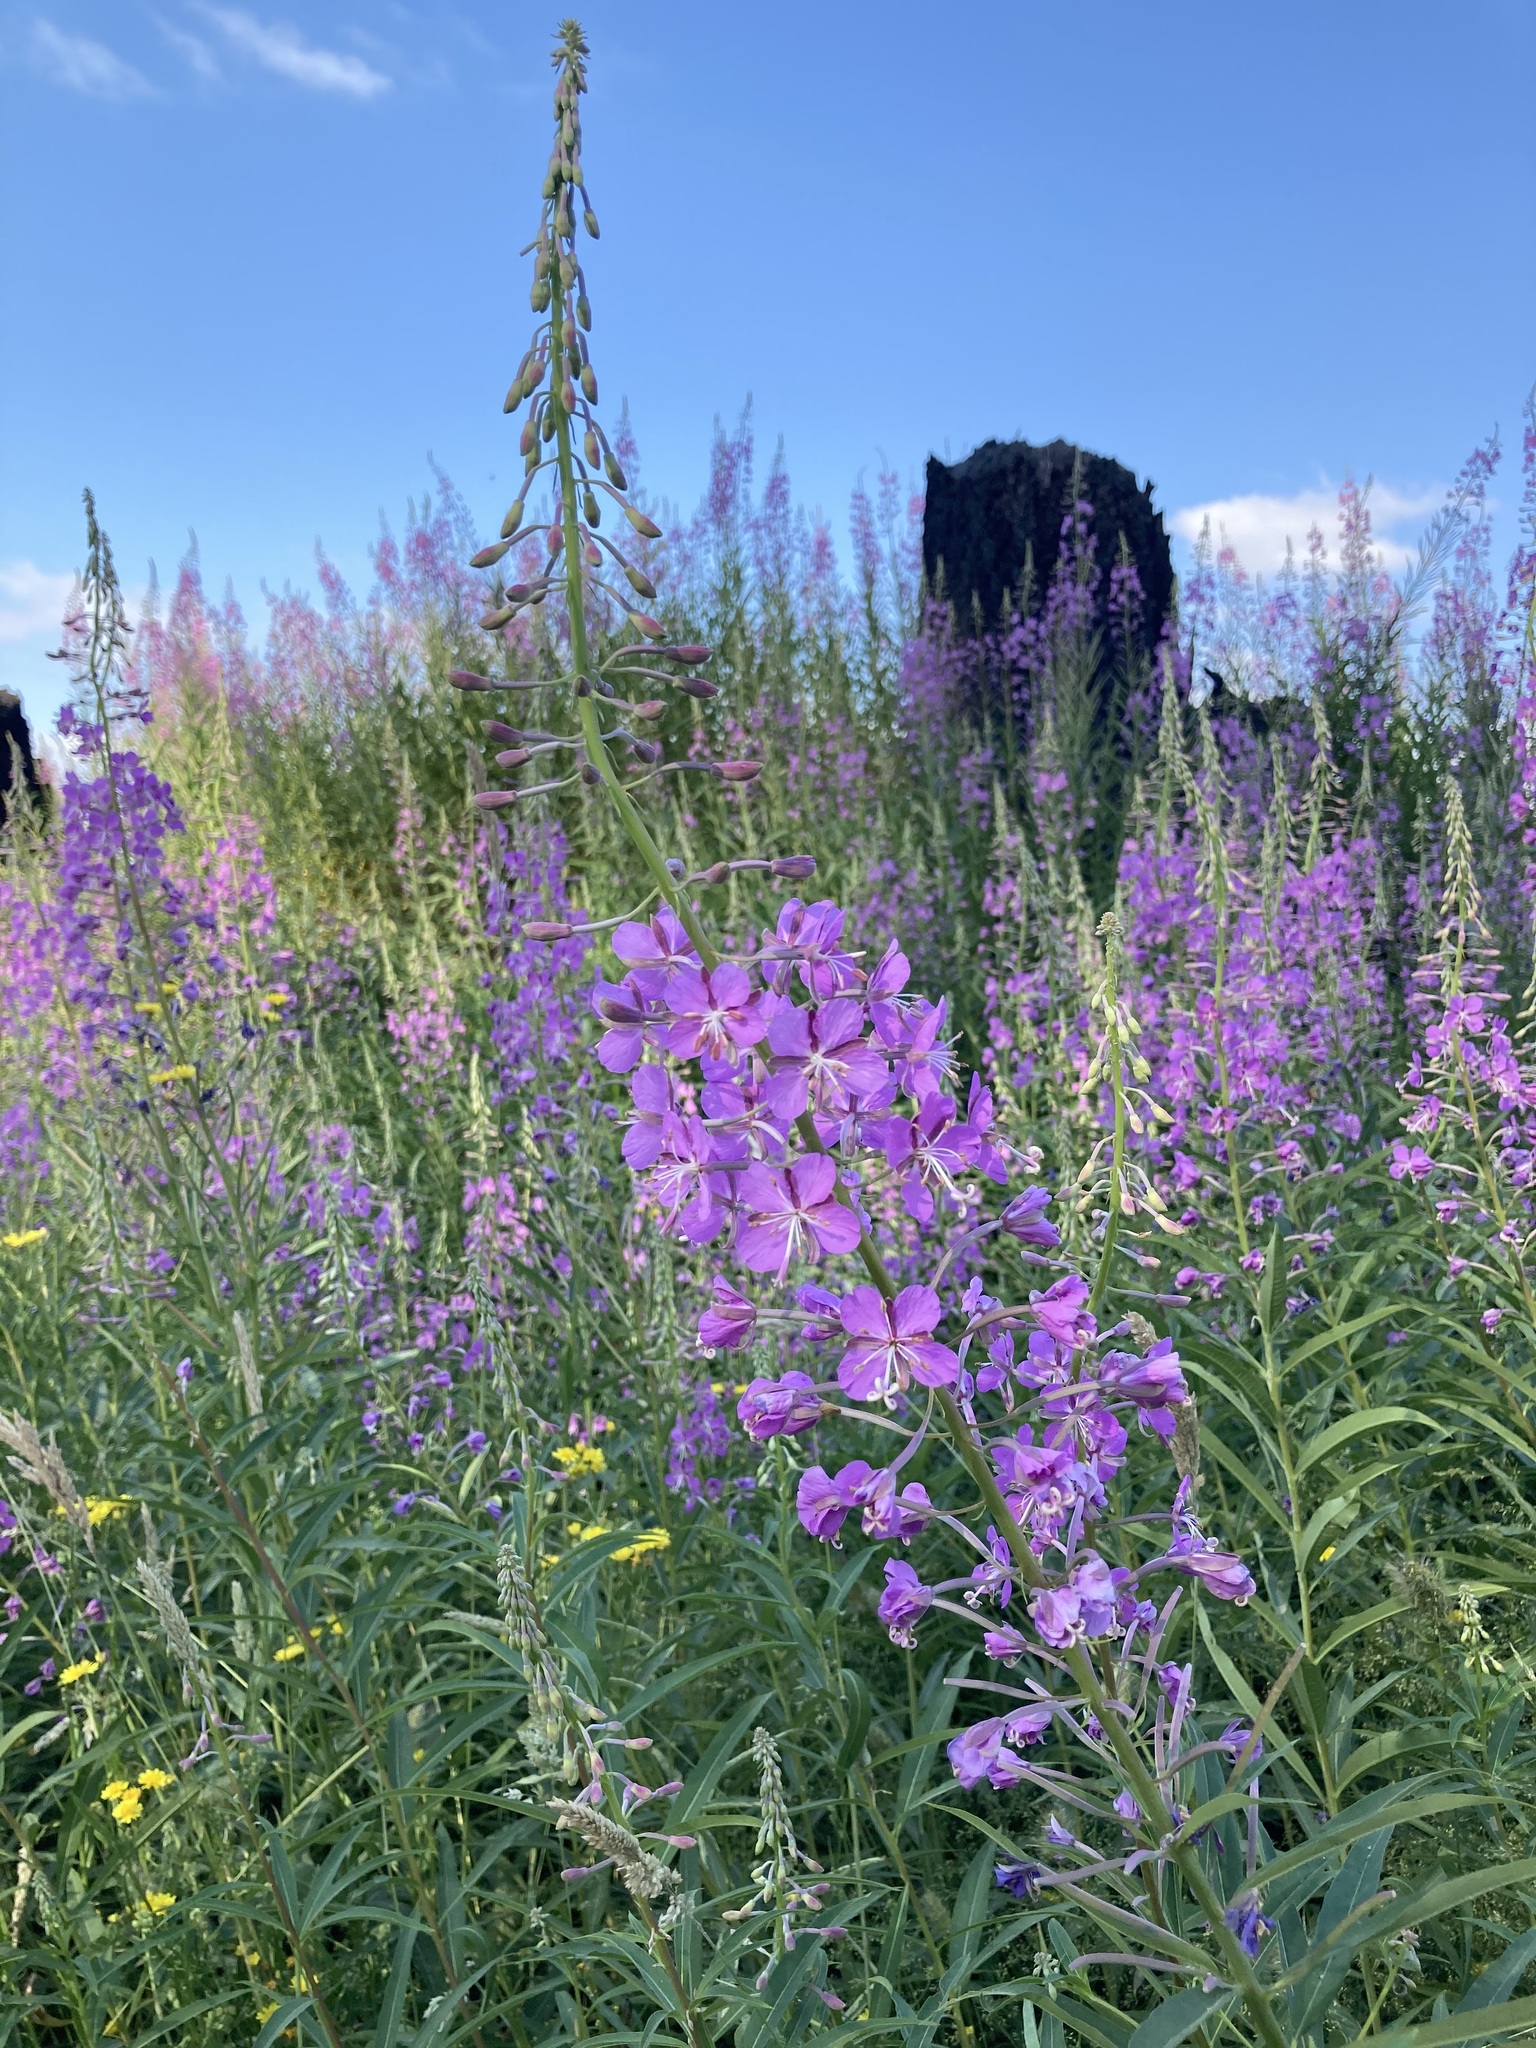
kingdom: Plantae
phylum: Tracheophyta
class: Magnoliopsida
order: Myrtales
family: Onagraceae
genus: Chamaenerion
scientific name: Chamaenerion angustifolium
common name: Fireweed
